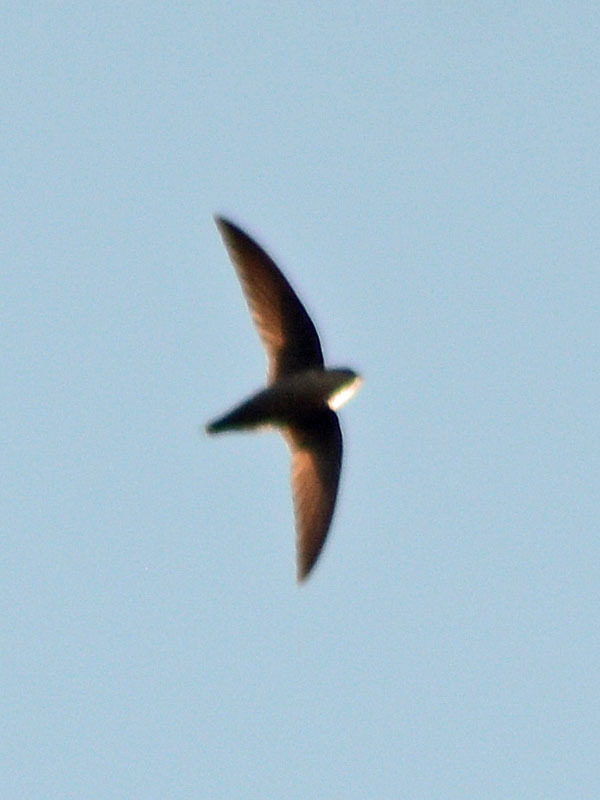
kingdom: Animalia
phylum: Chordata
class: Aves
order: Apodiformes
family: Apodidae
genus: Chaetura
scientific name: Chaetura vauxi
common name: Vaux's swift
